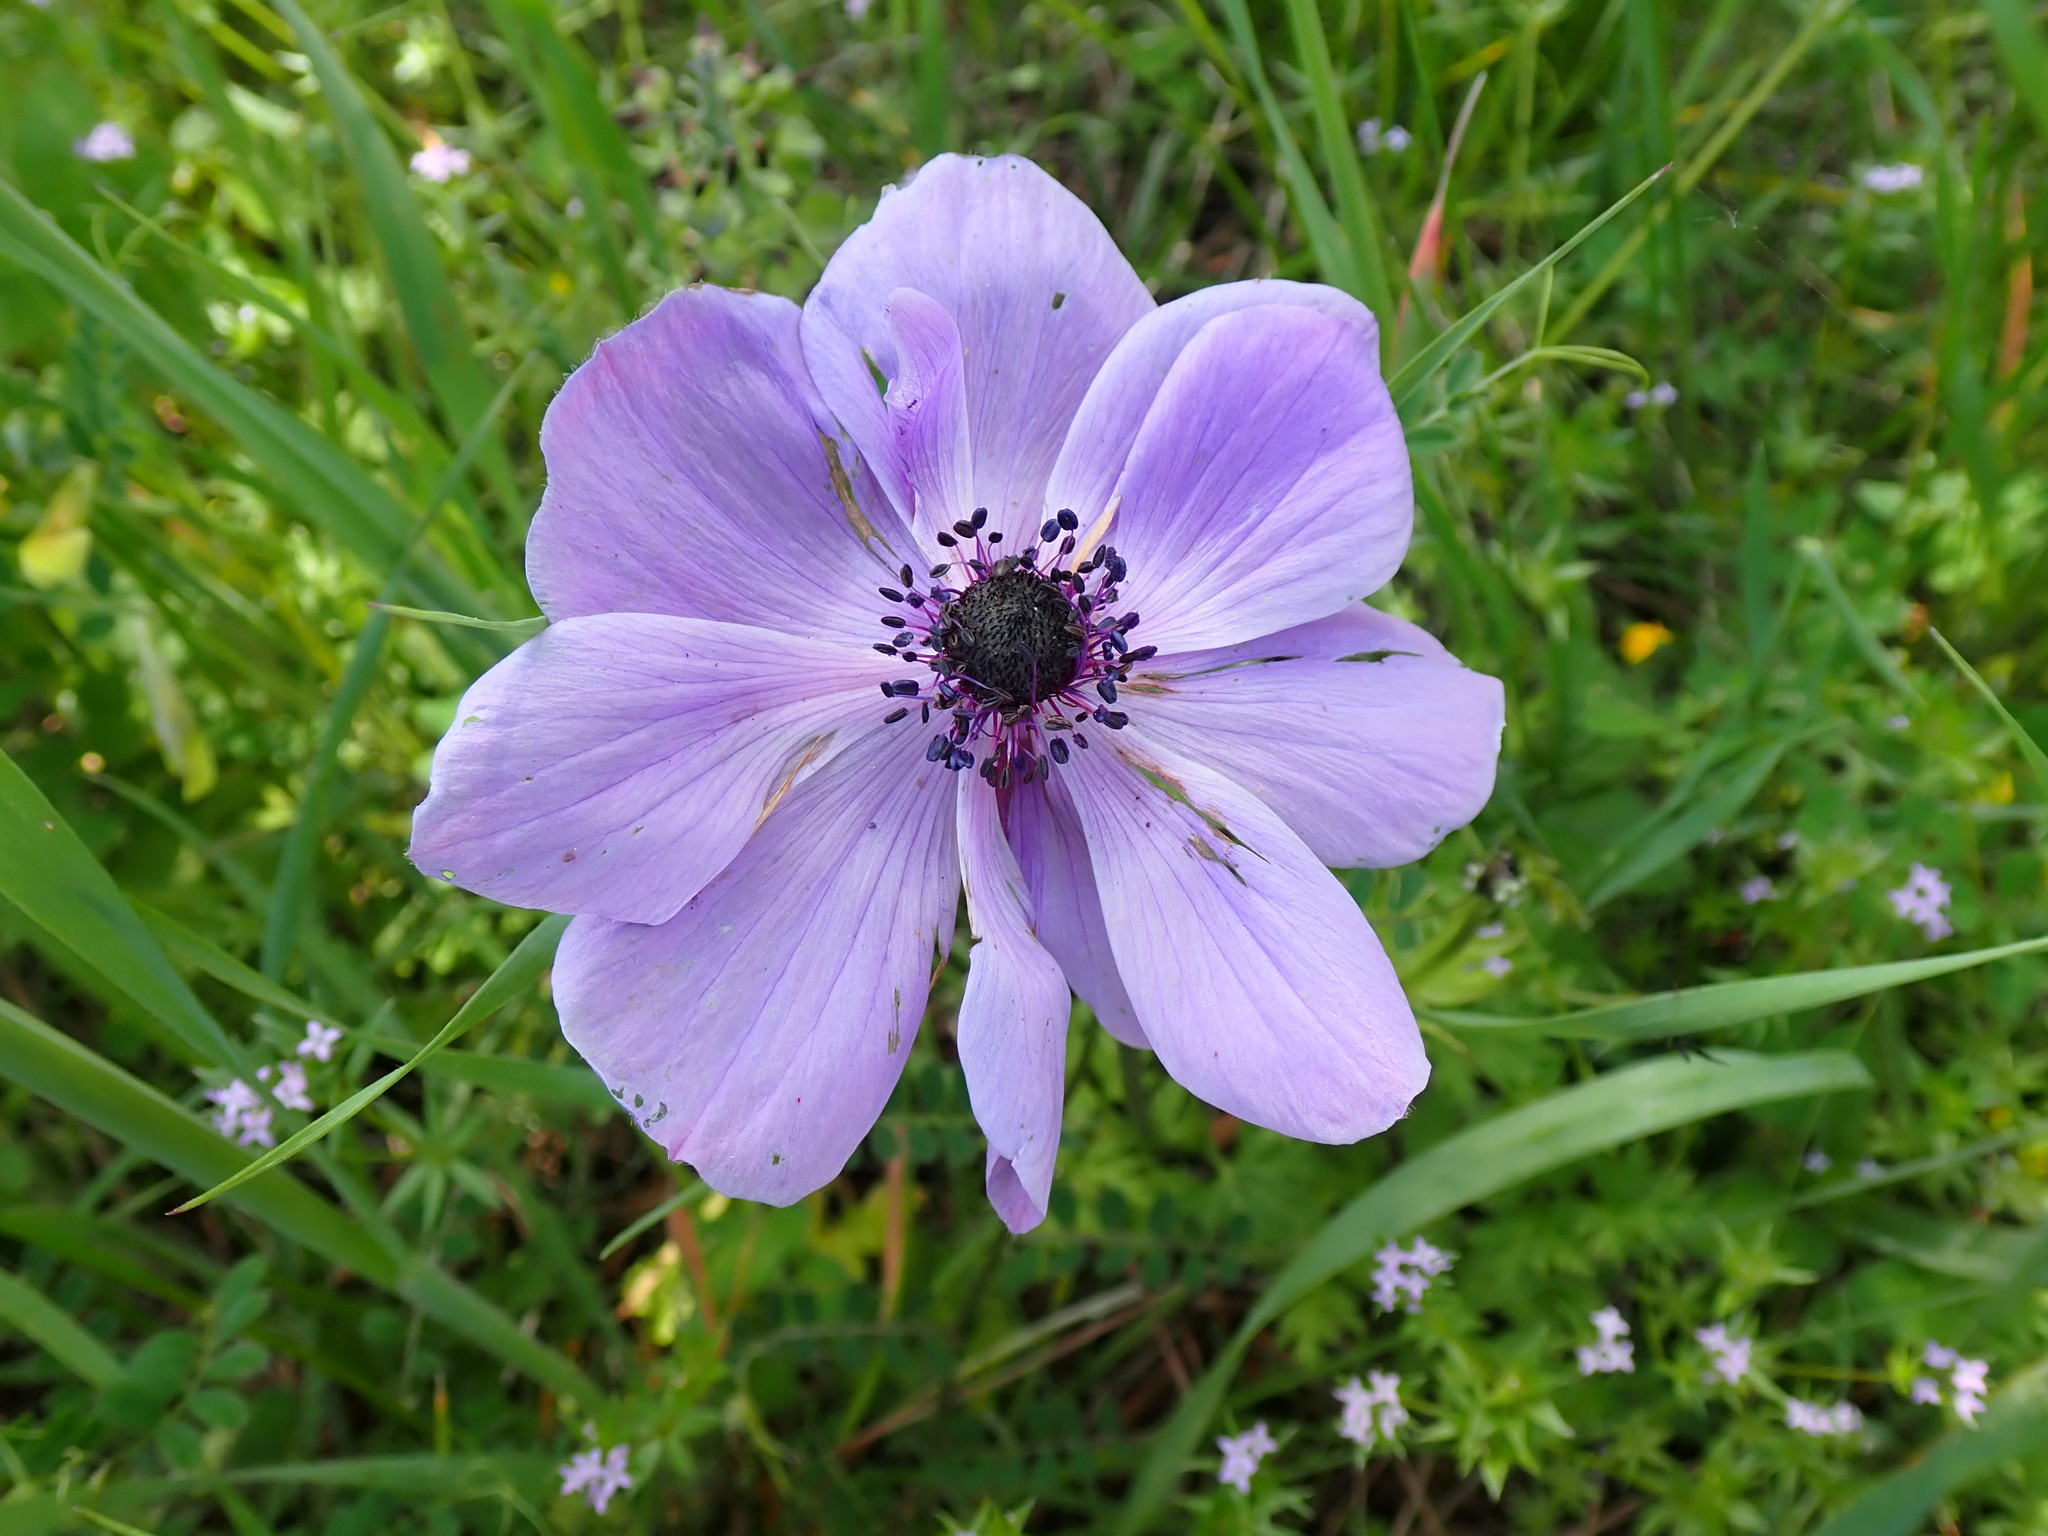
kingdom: Plantae
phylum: Tracheophyta
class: Magnoliopsida
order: Ranunculales
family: Ranunculaceae
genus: Anemone
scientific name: Anemone coronaria
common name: Poppy anemone
